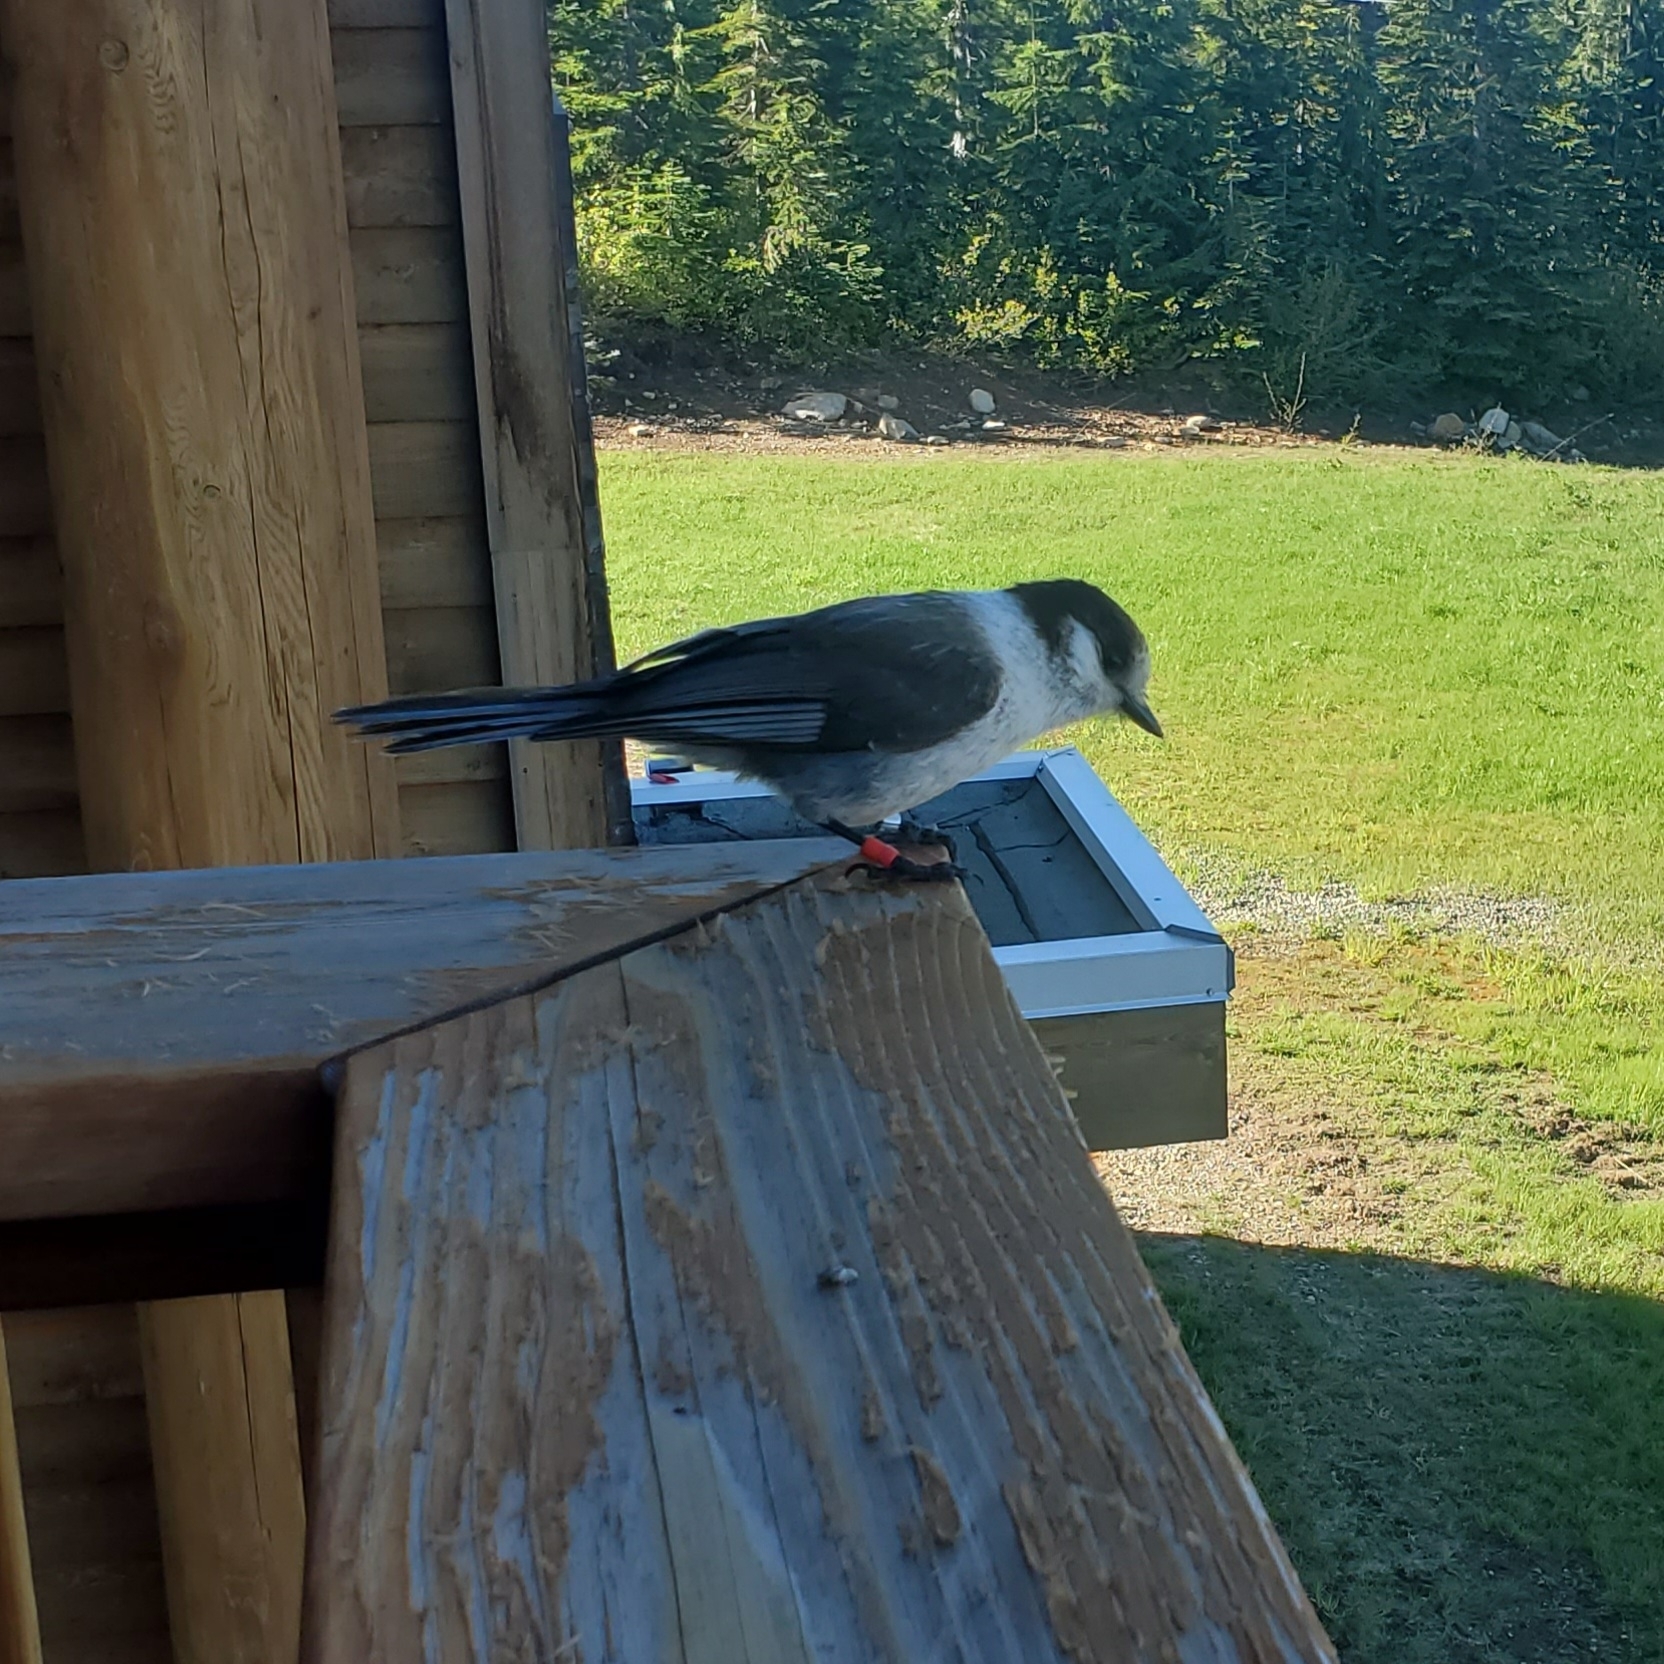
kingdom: Animalia
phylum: Chordata
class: Aves
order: Passeriformes
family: Corvidae
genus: Perisoreus
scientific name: Perisoreus canadensis
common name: Gray jay
